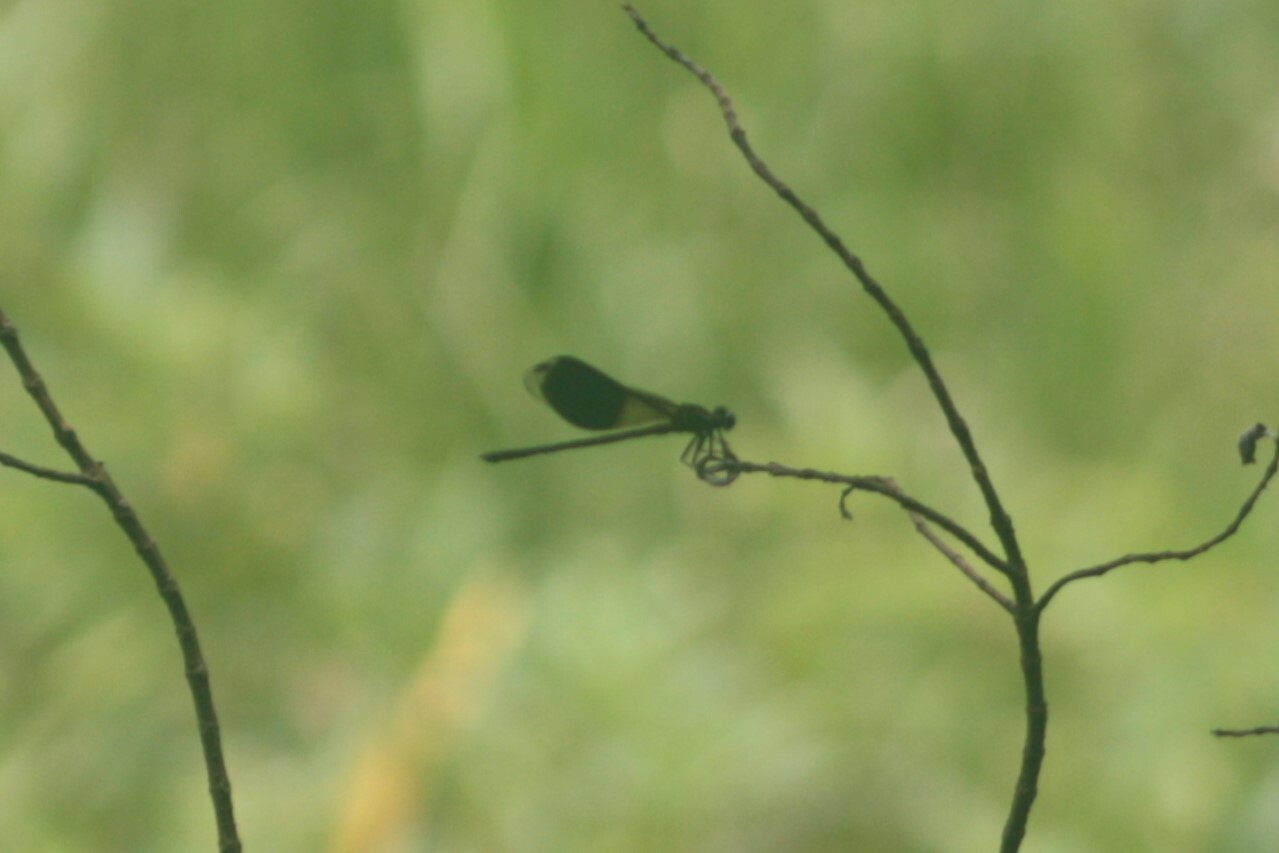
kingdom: Animalia
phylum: Arthropoda
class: Insecta
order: Odonata
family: Euphaeidae
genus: Euphaea
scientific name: Euphaea formosa
